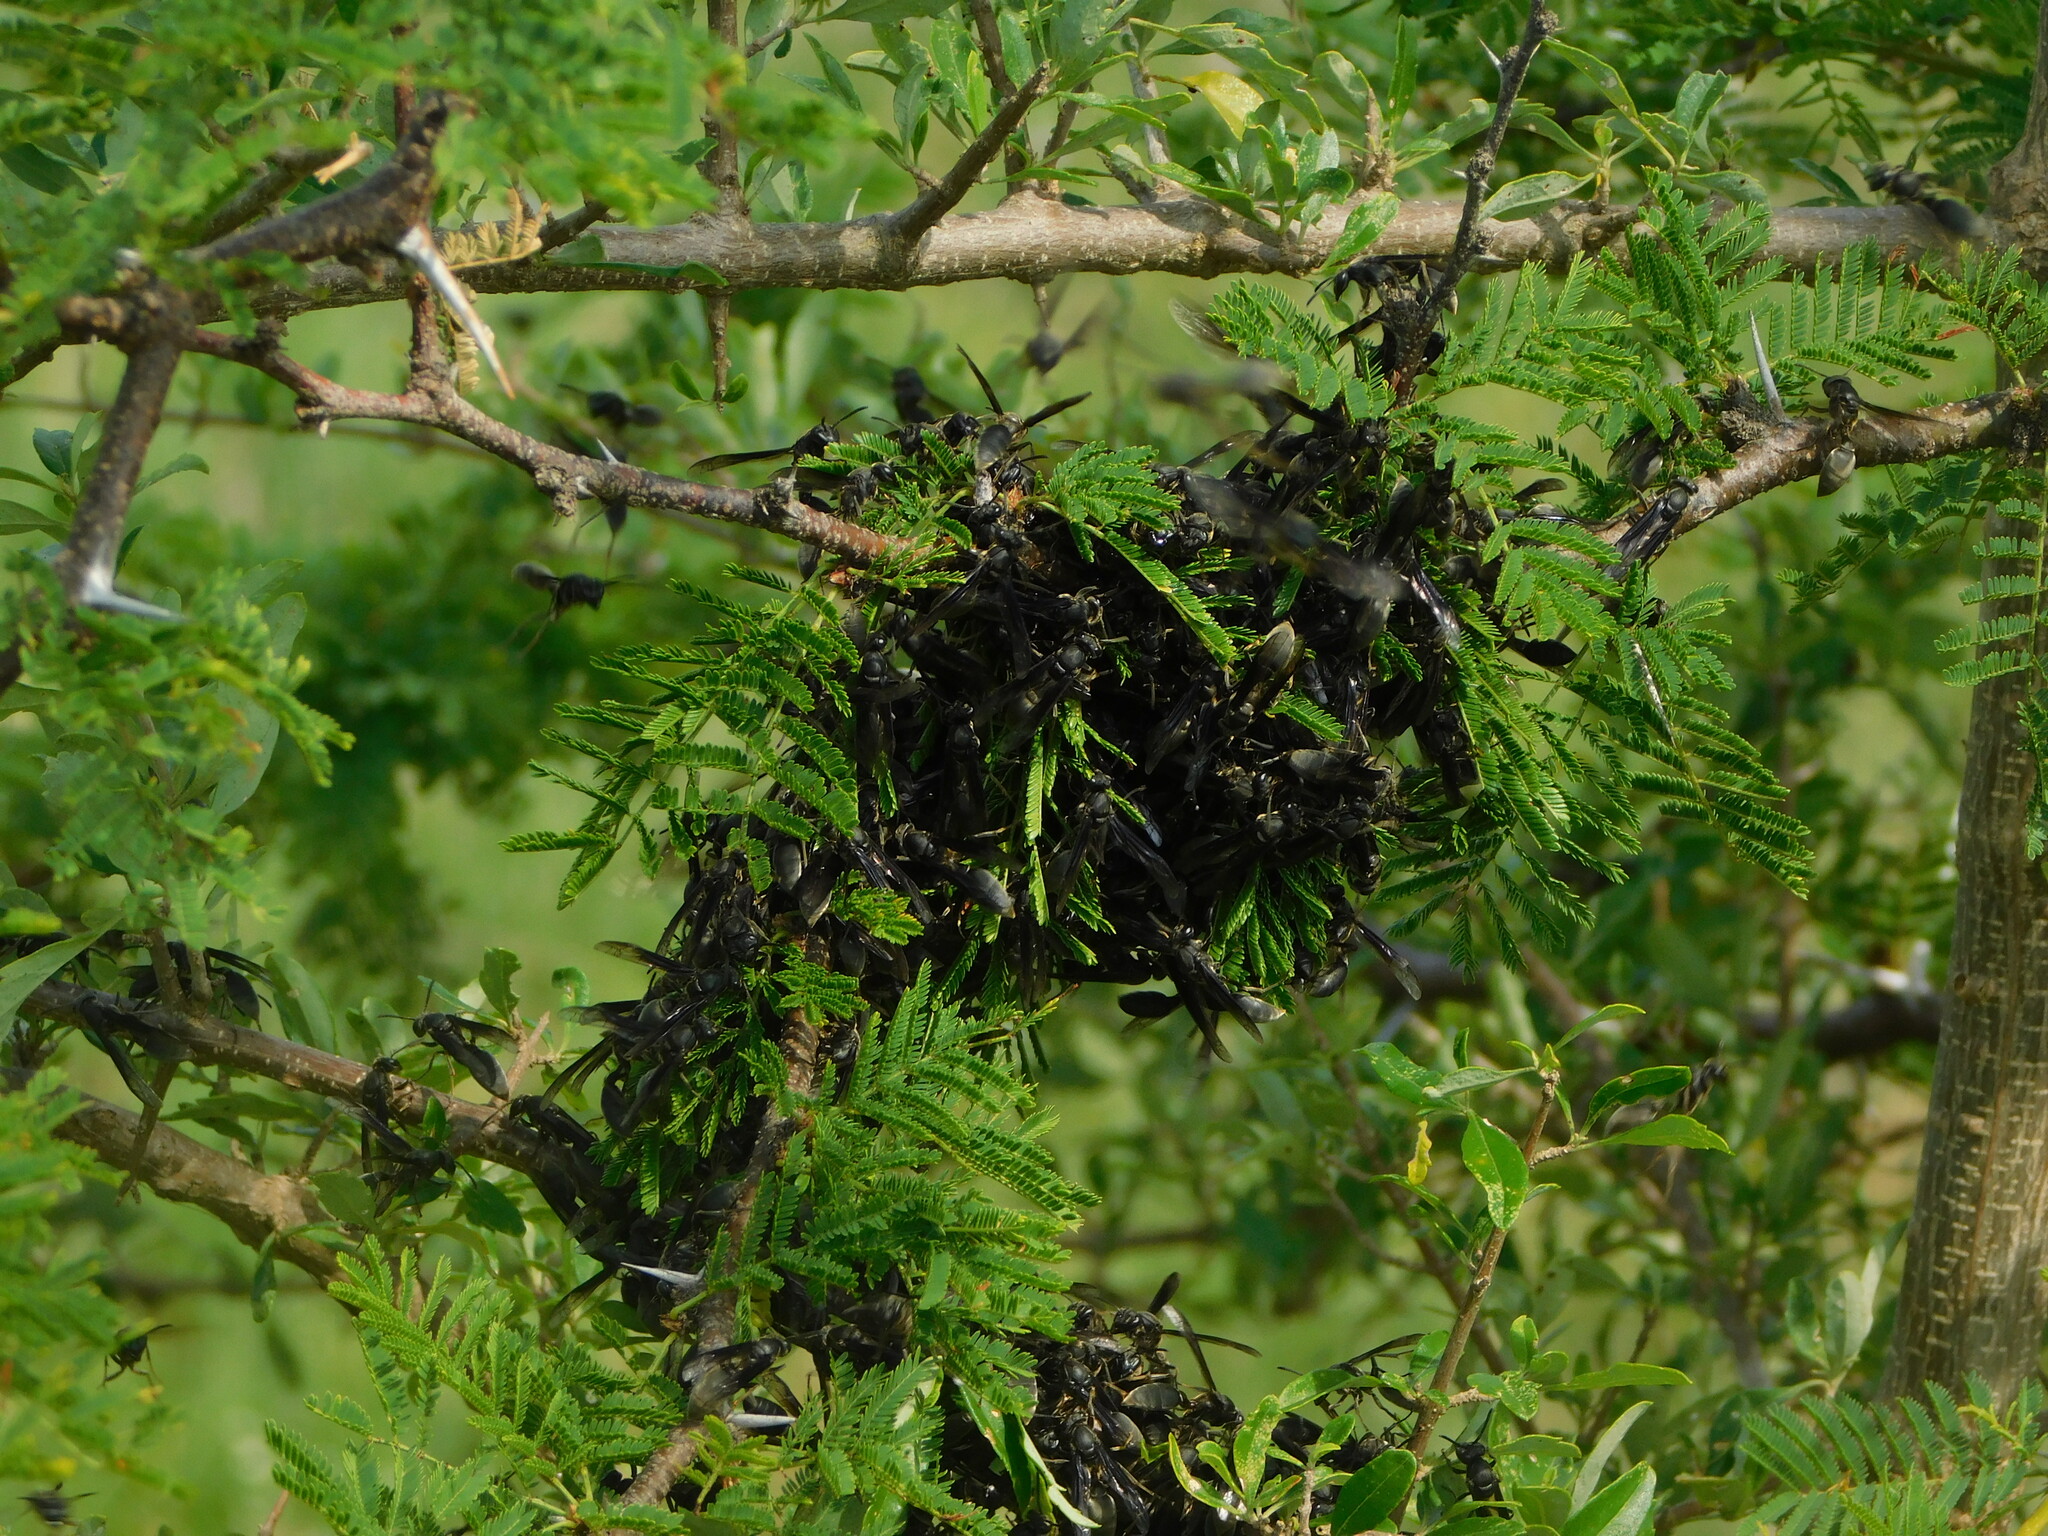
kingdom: Animalia
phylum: Arthropoda
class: Insecta
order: Hymenoptera
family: Eumenidae
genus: Polybia
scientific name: Polybia ignobilis
